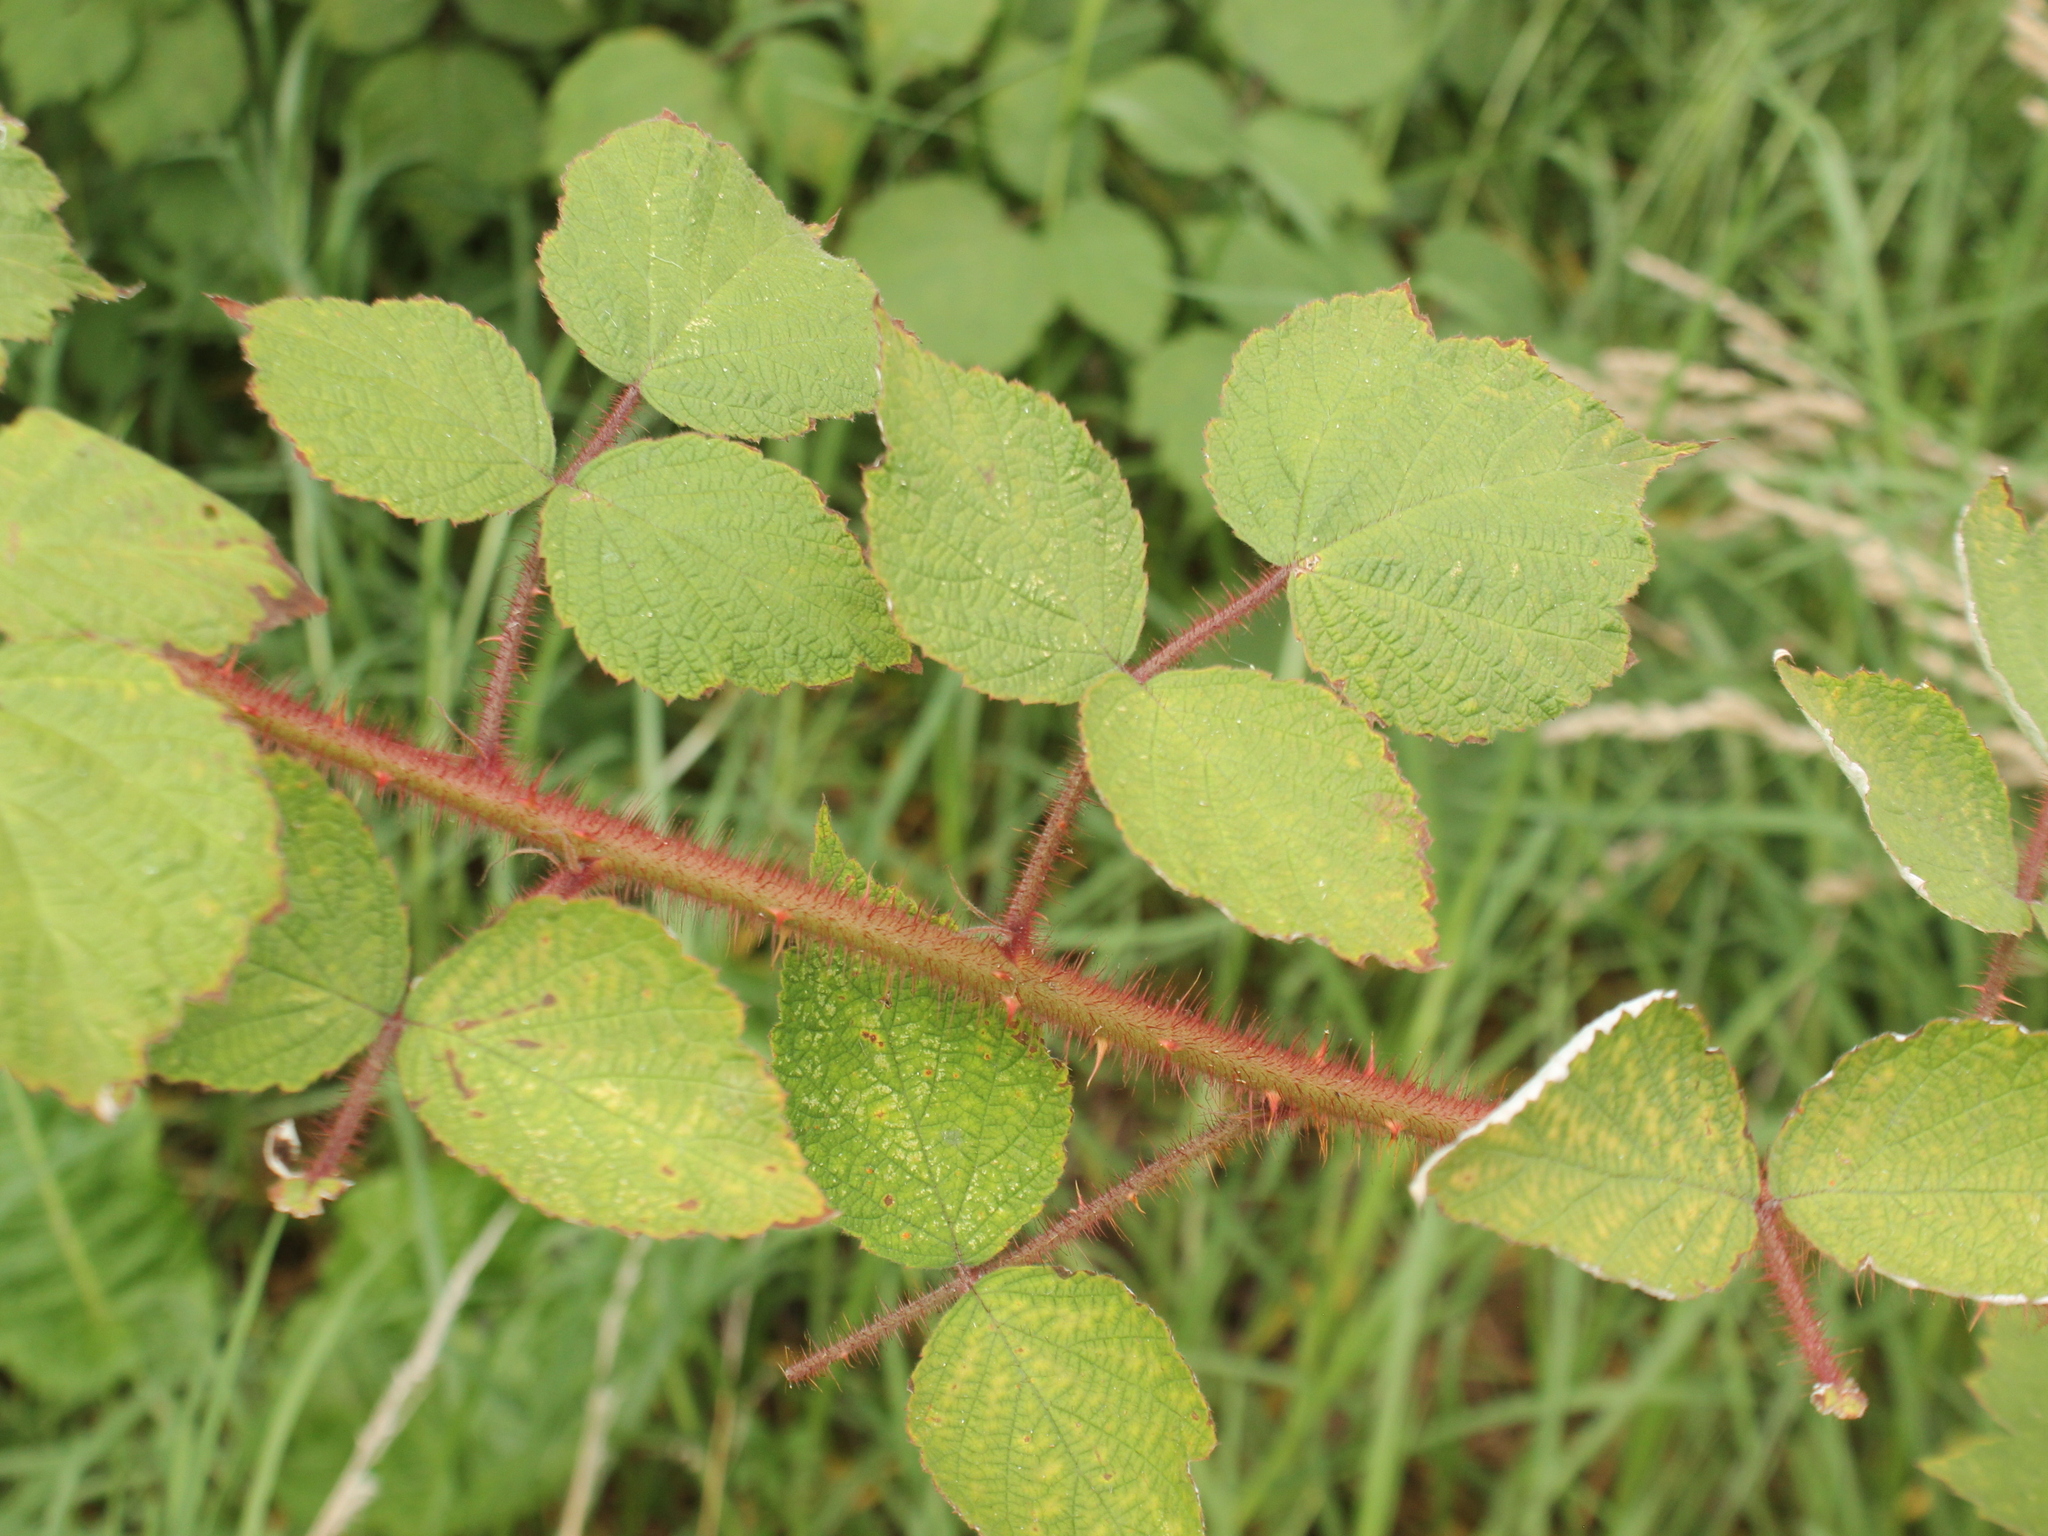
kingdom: Plantae
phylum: Tracheophyta
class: Magnoliopsida
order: Rosales
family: Rosaceae
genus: Rubus
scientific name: Rubus phoenicolasius
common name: Japanese wineberry
